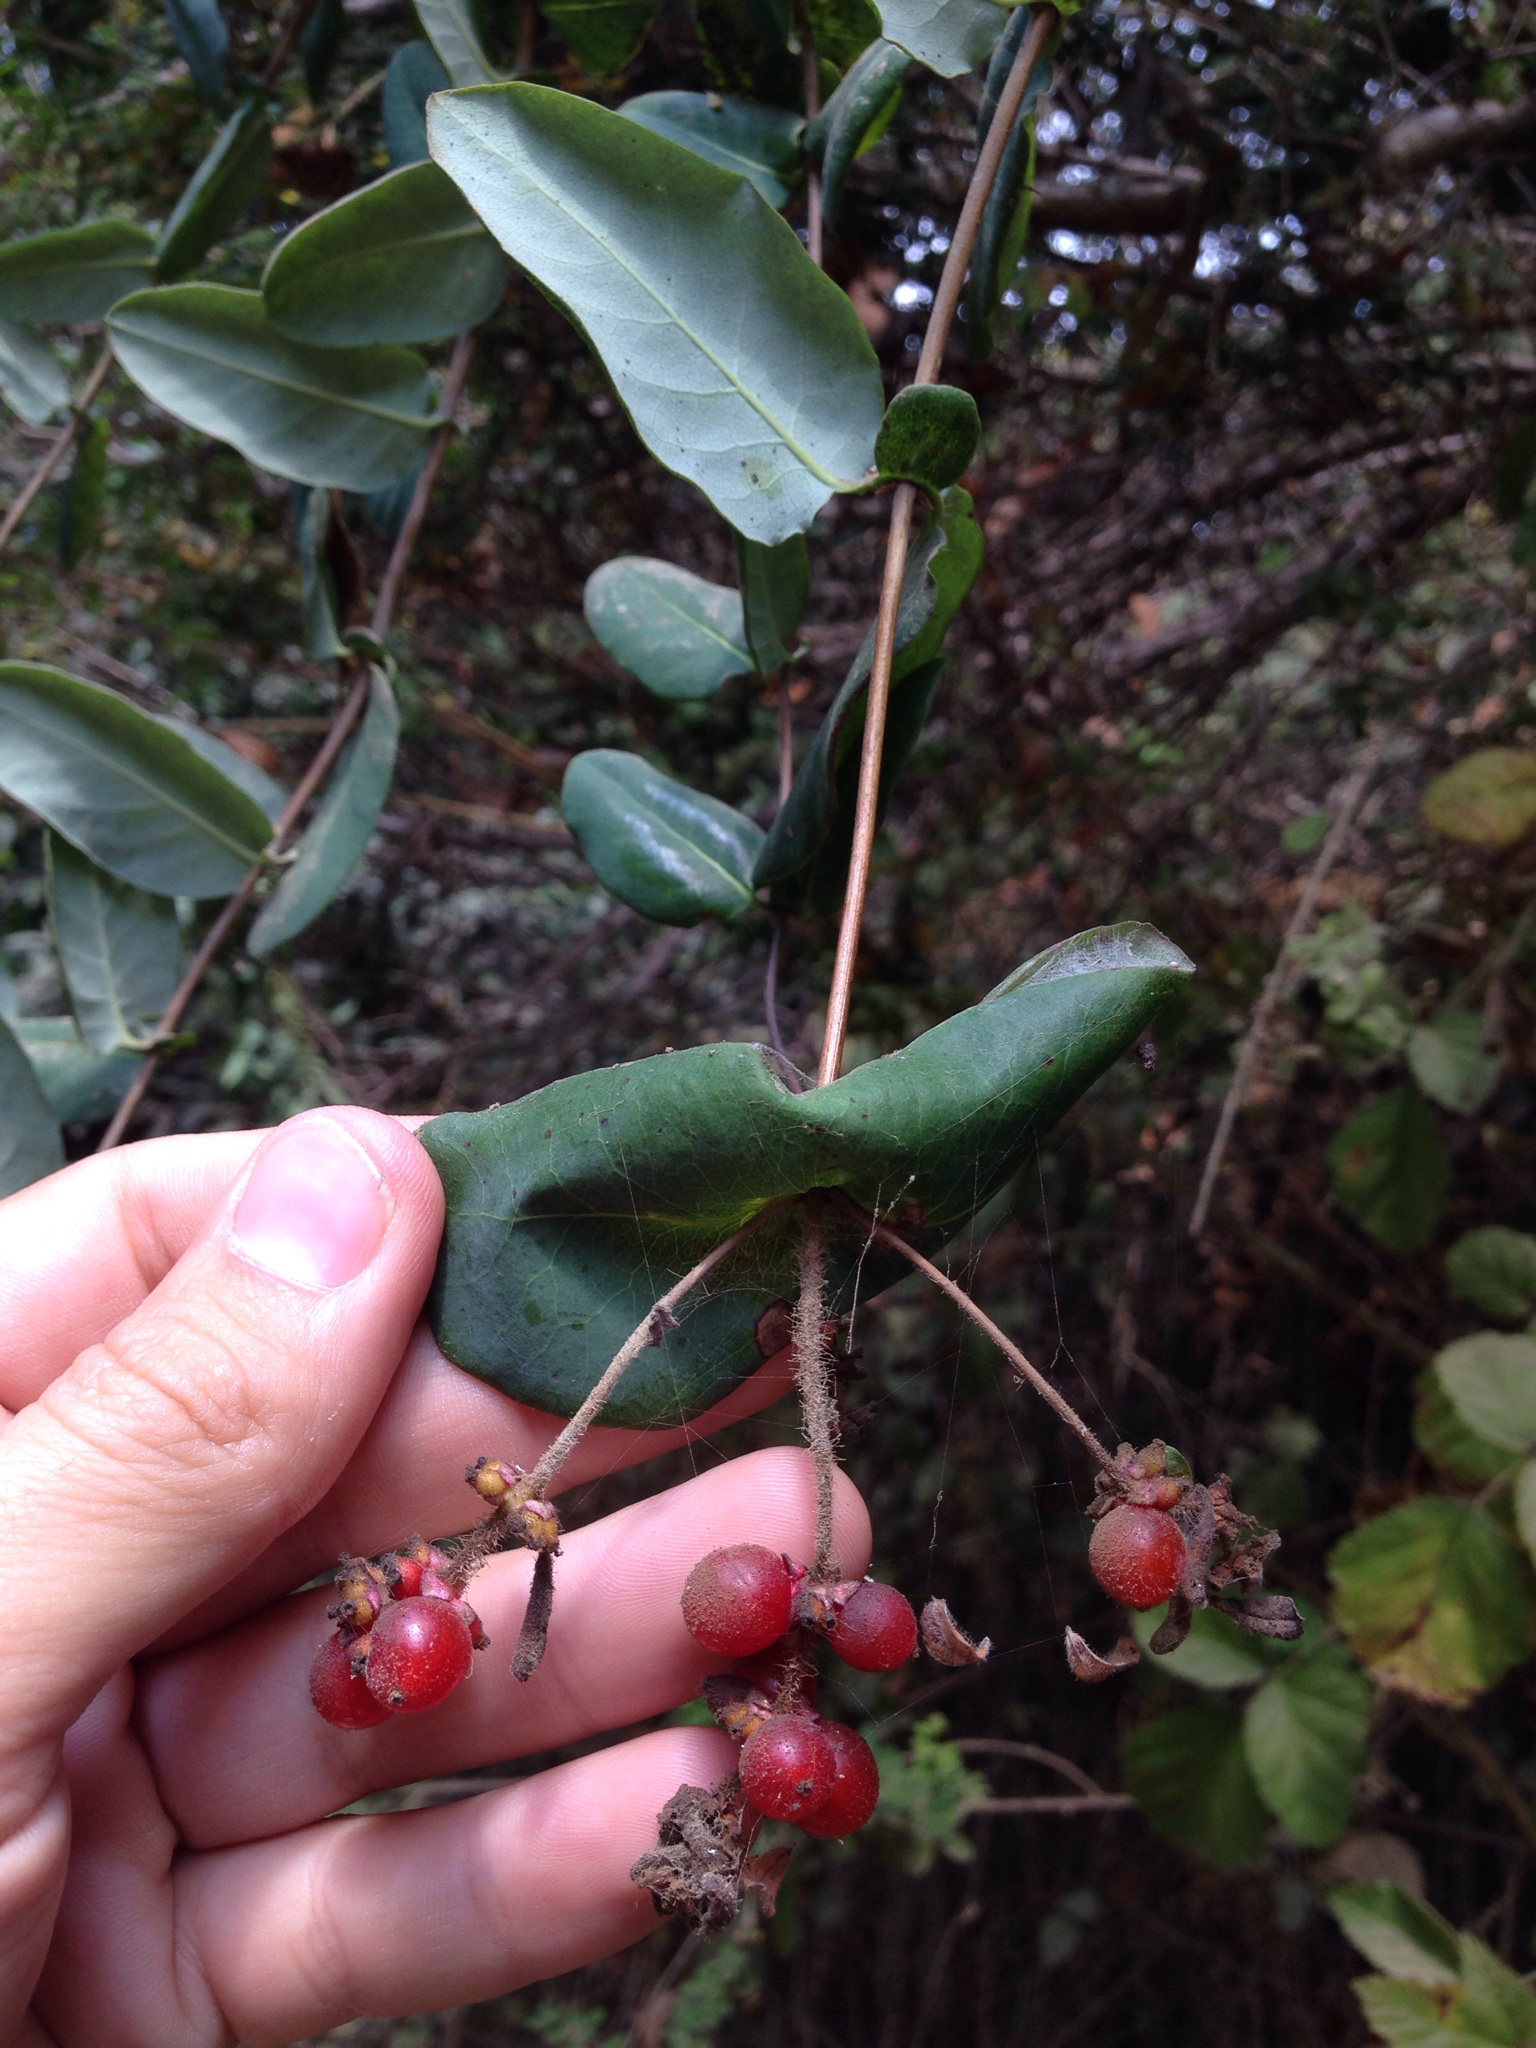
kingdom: Plantae
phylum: Tracheophyta
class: Magnoliopsida
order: Dipsacales
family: Caprifoliaceae
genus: Lonicera
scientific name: Lonicera hispidula
